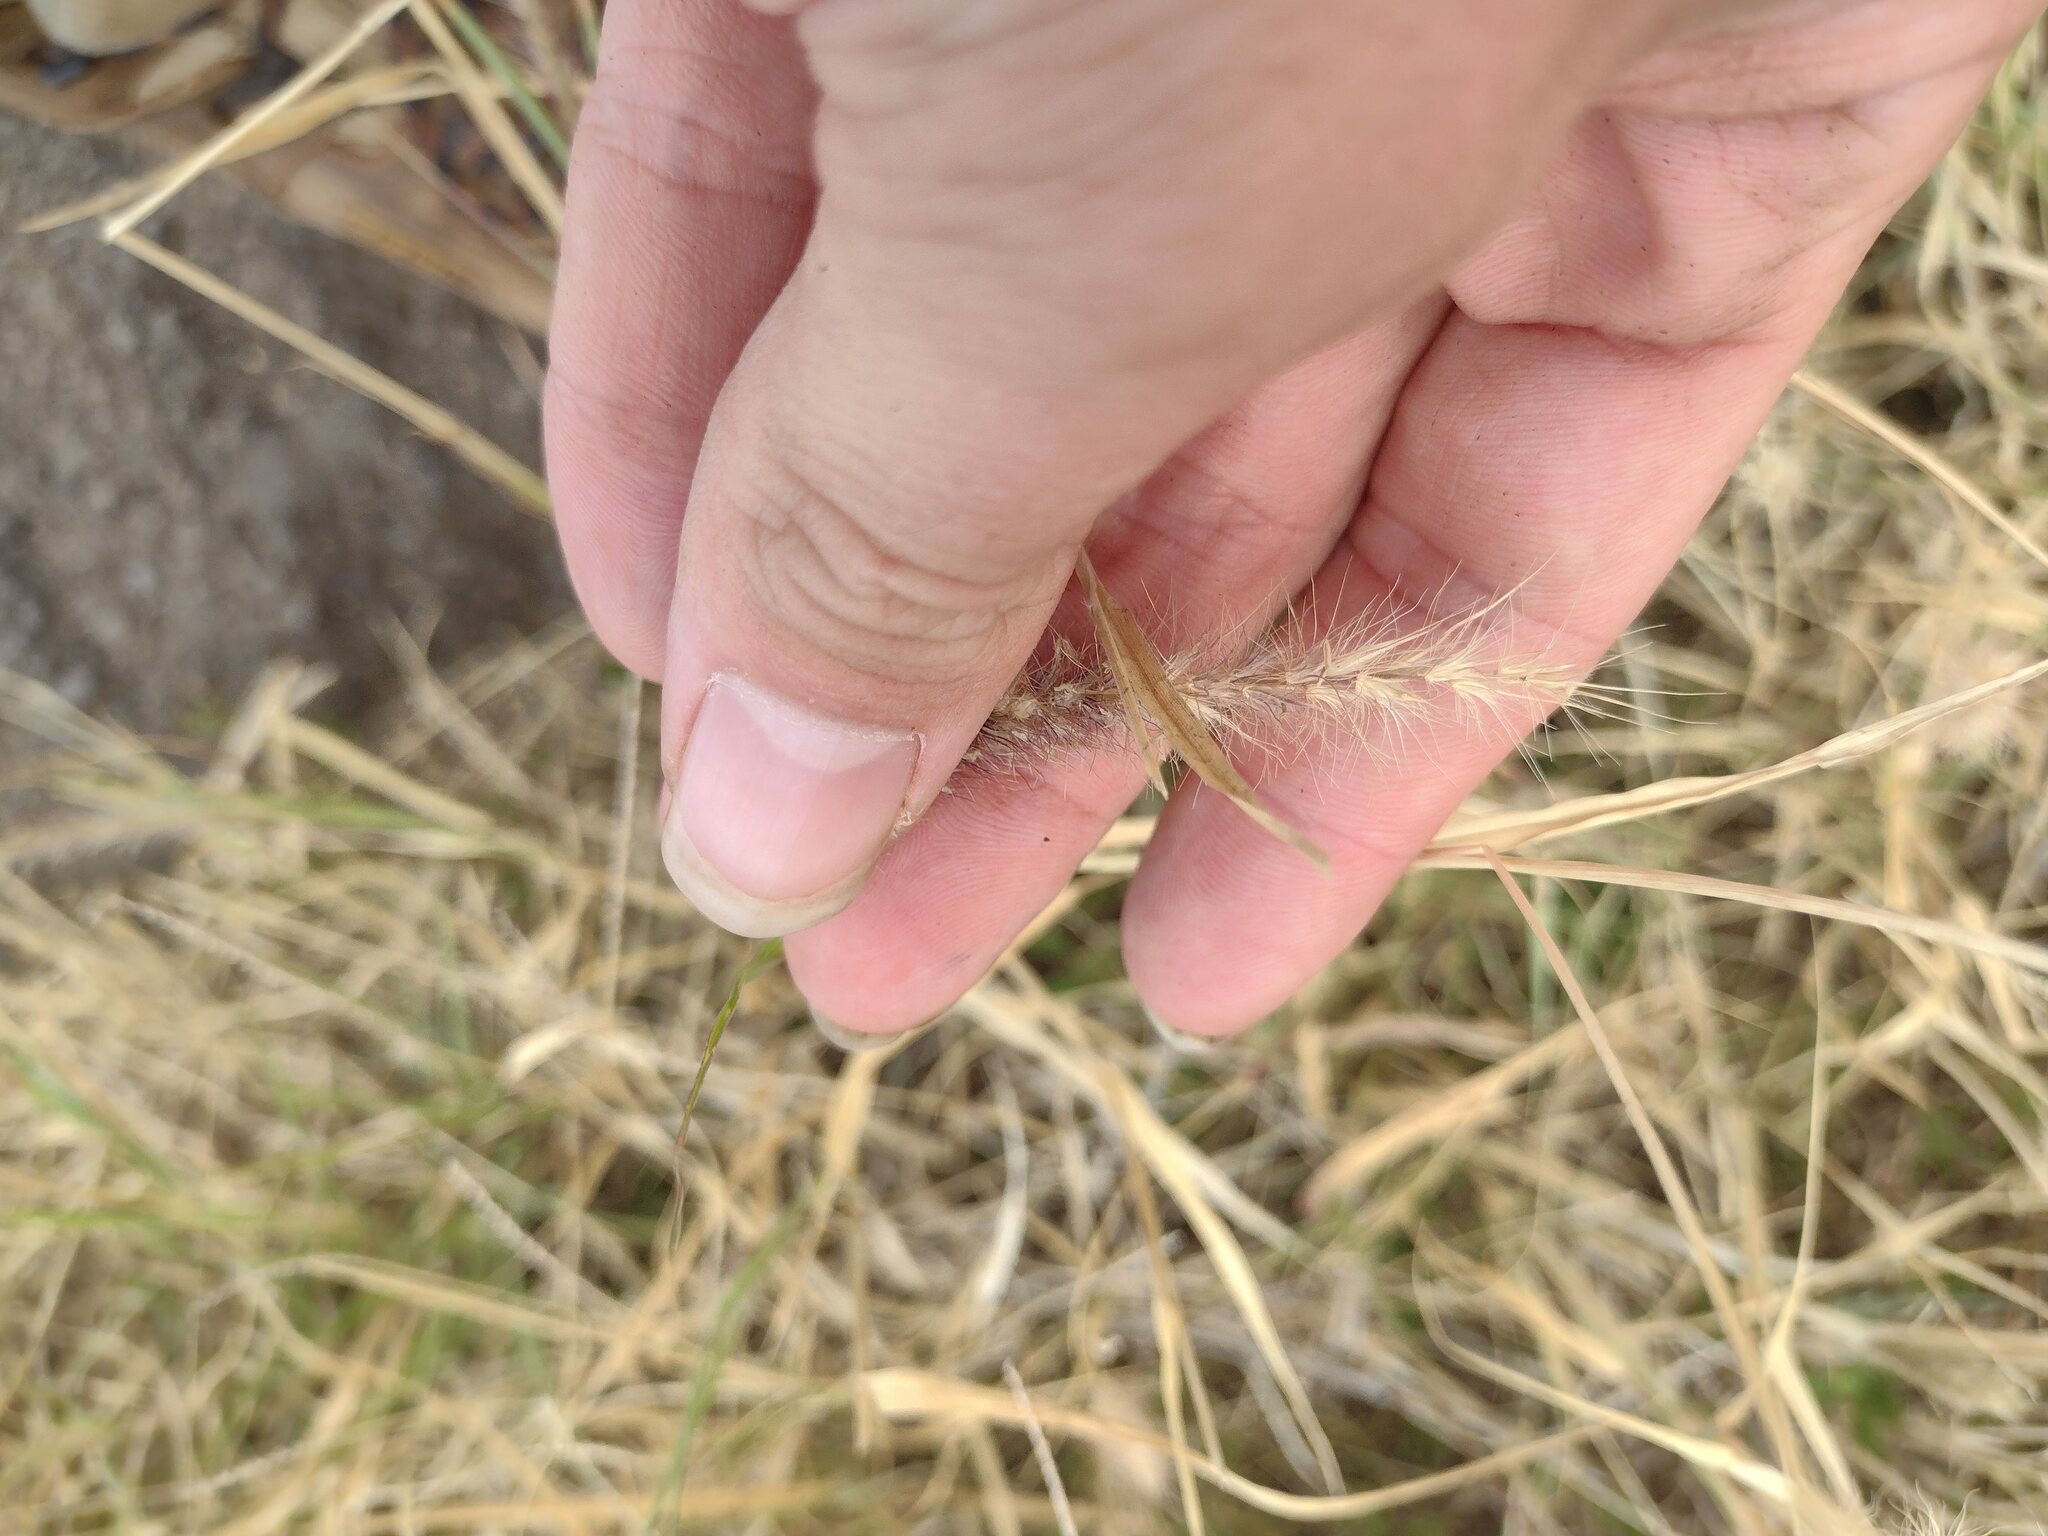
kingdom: Plantae
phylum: Tracheophyta
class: Liliopsida
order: Poales
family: Poaceae
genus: Cenchrus
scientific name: Cenchrus ciliaris
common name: Buffelgrass
